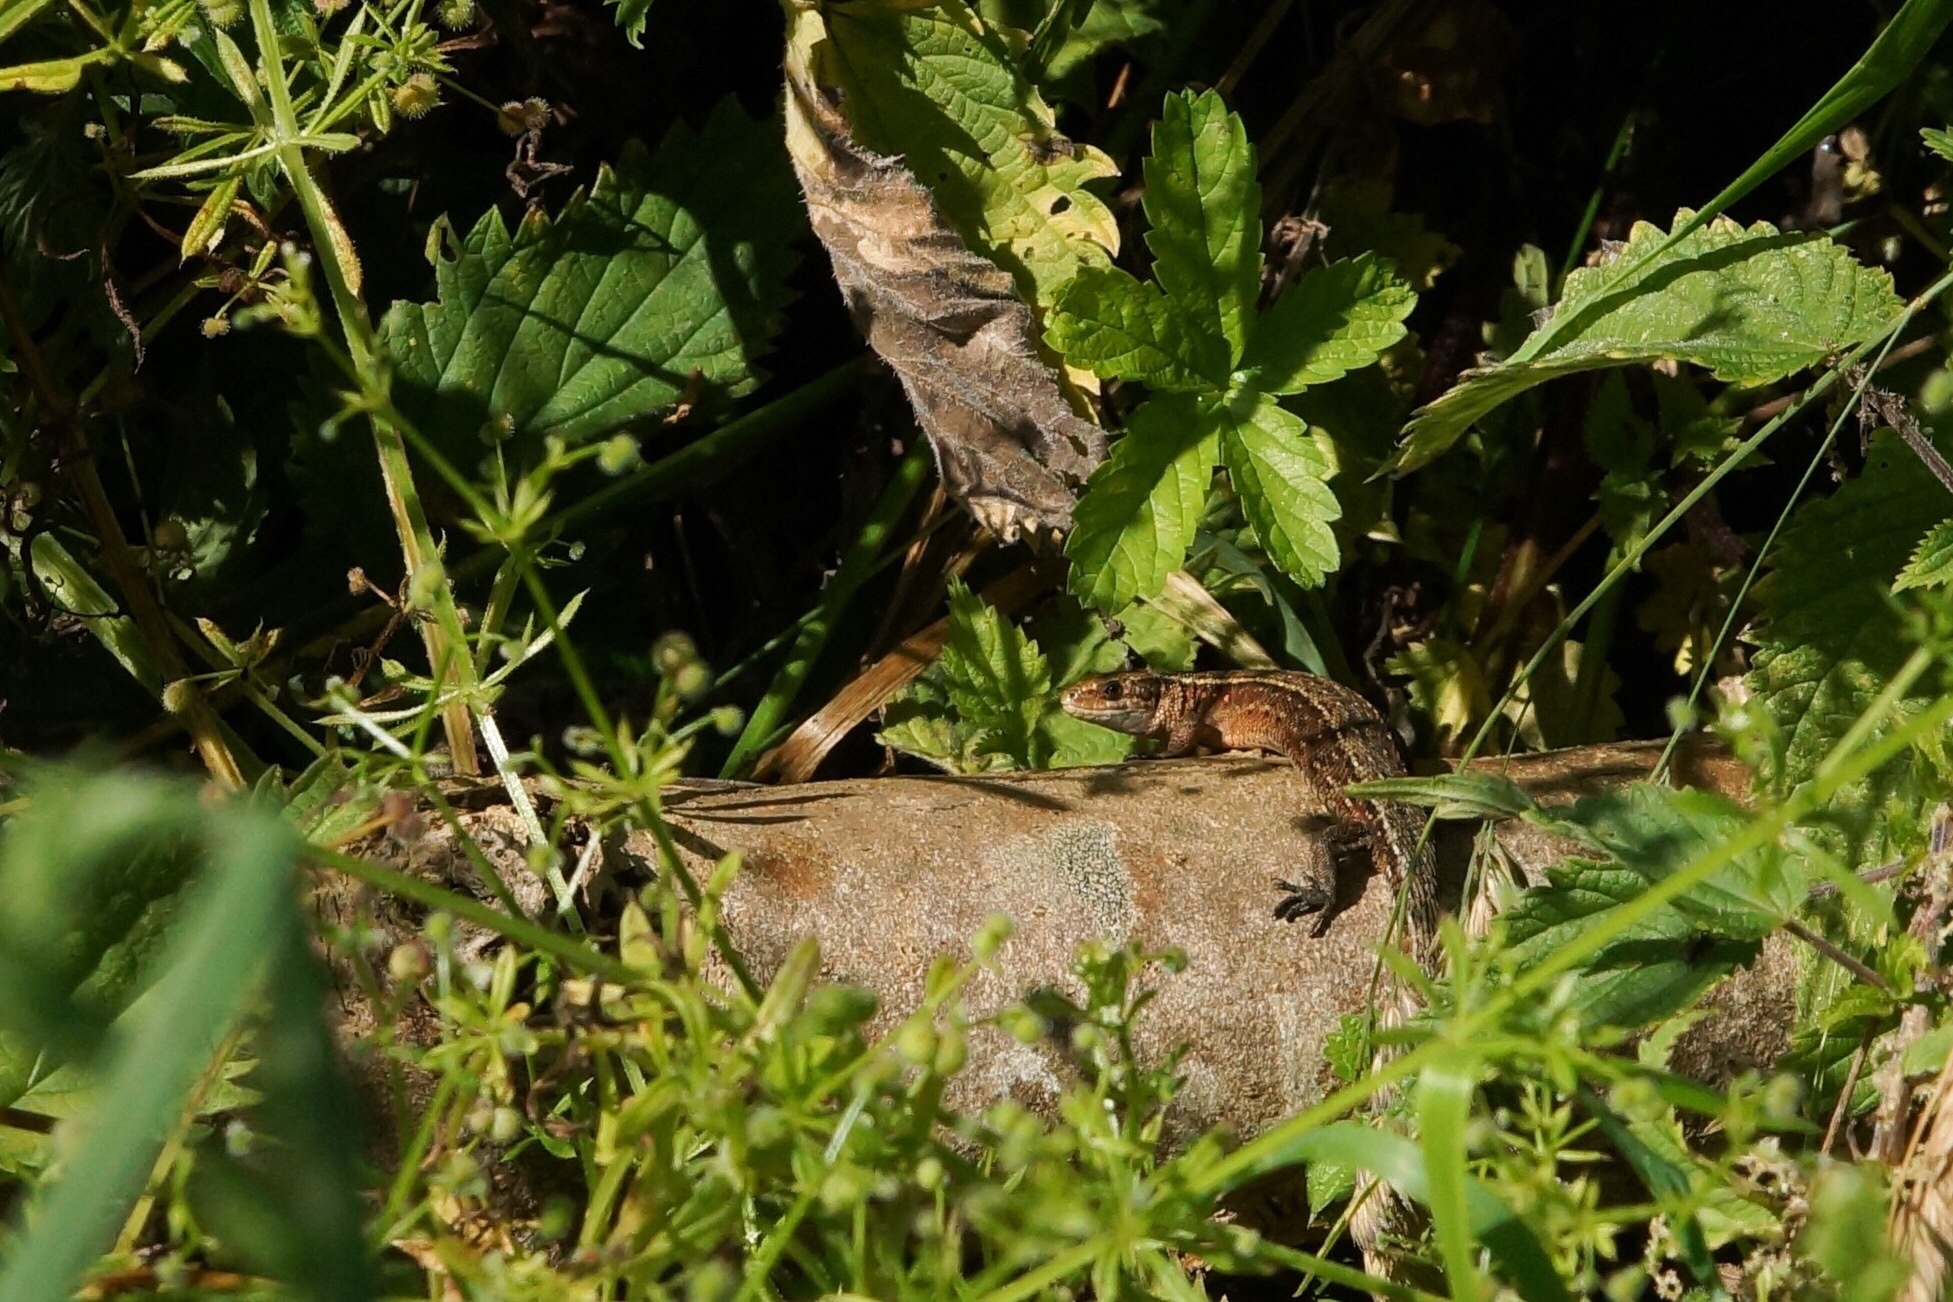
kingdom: Animalia
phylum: Chordata
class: Squamata
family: Lacertidae
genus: Zootoca
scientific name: Zootoca vivipara
